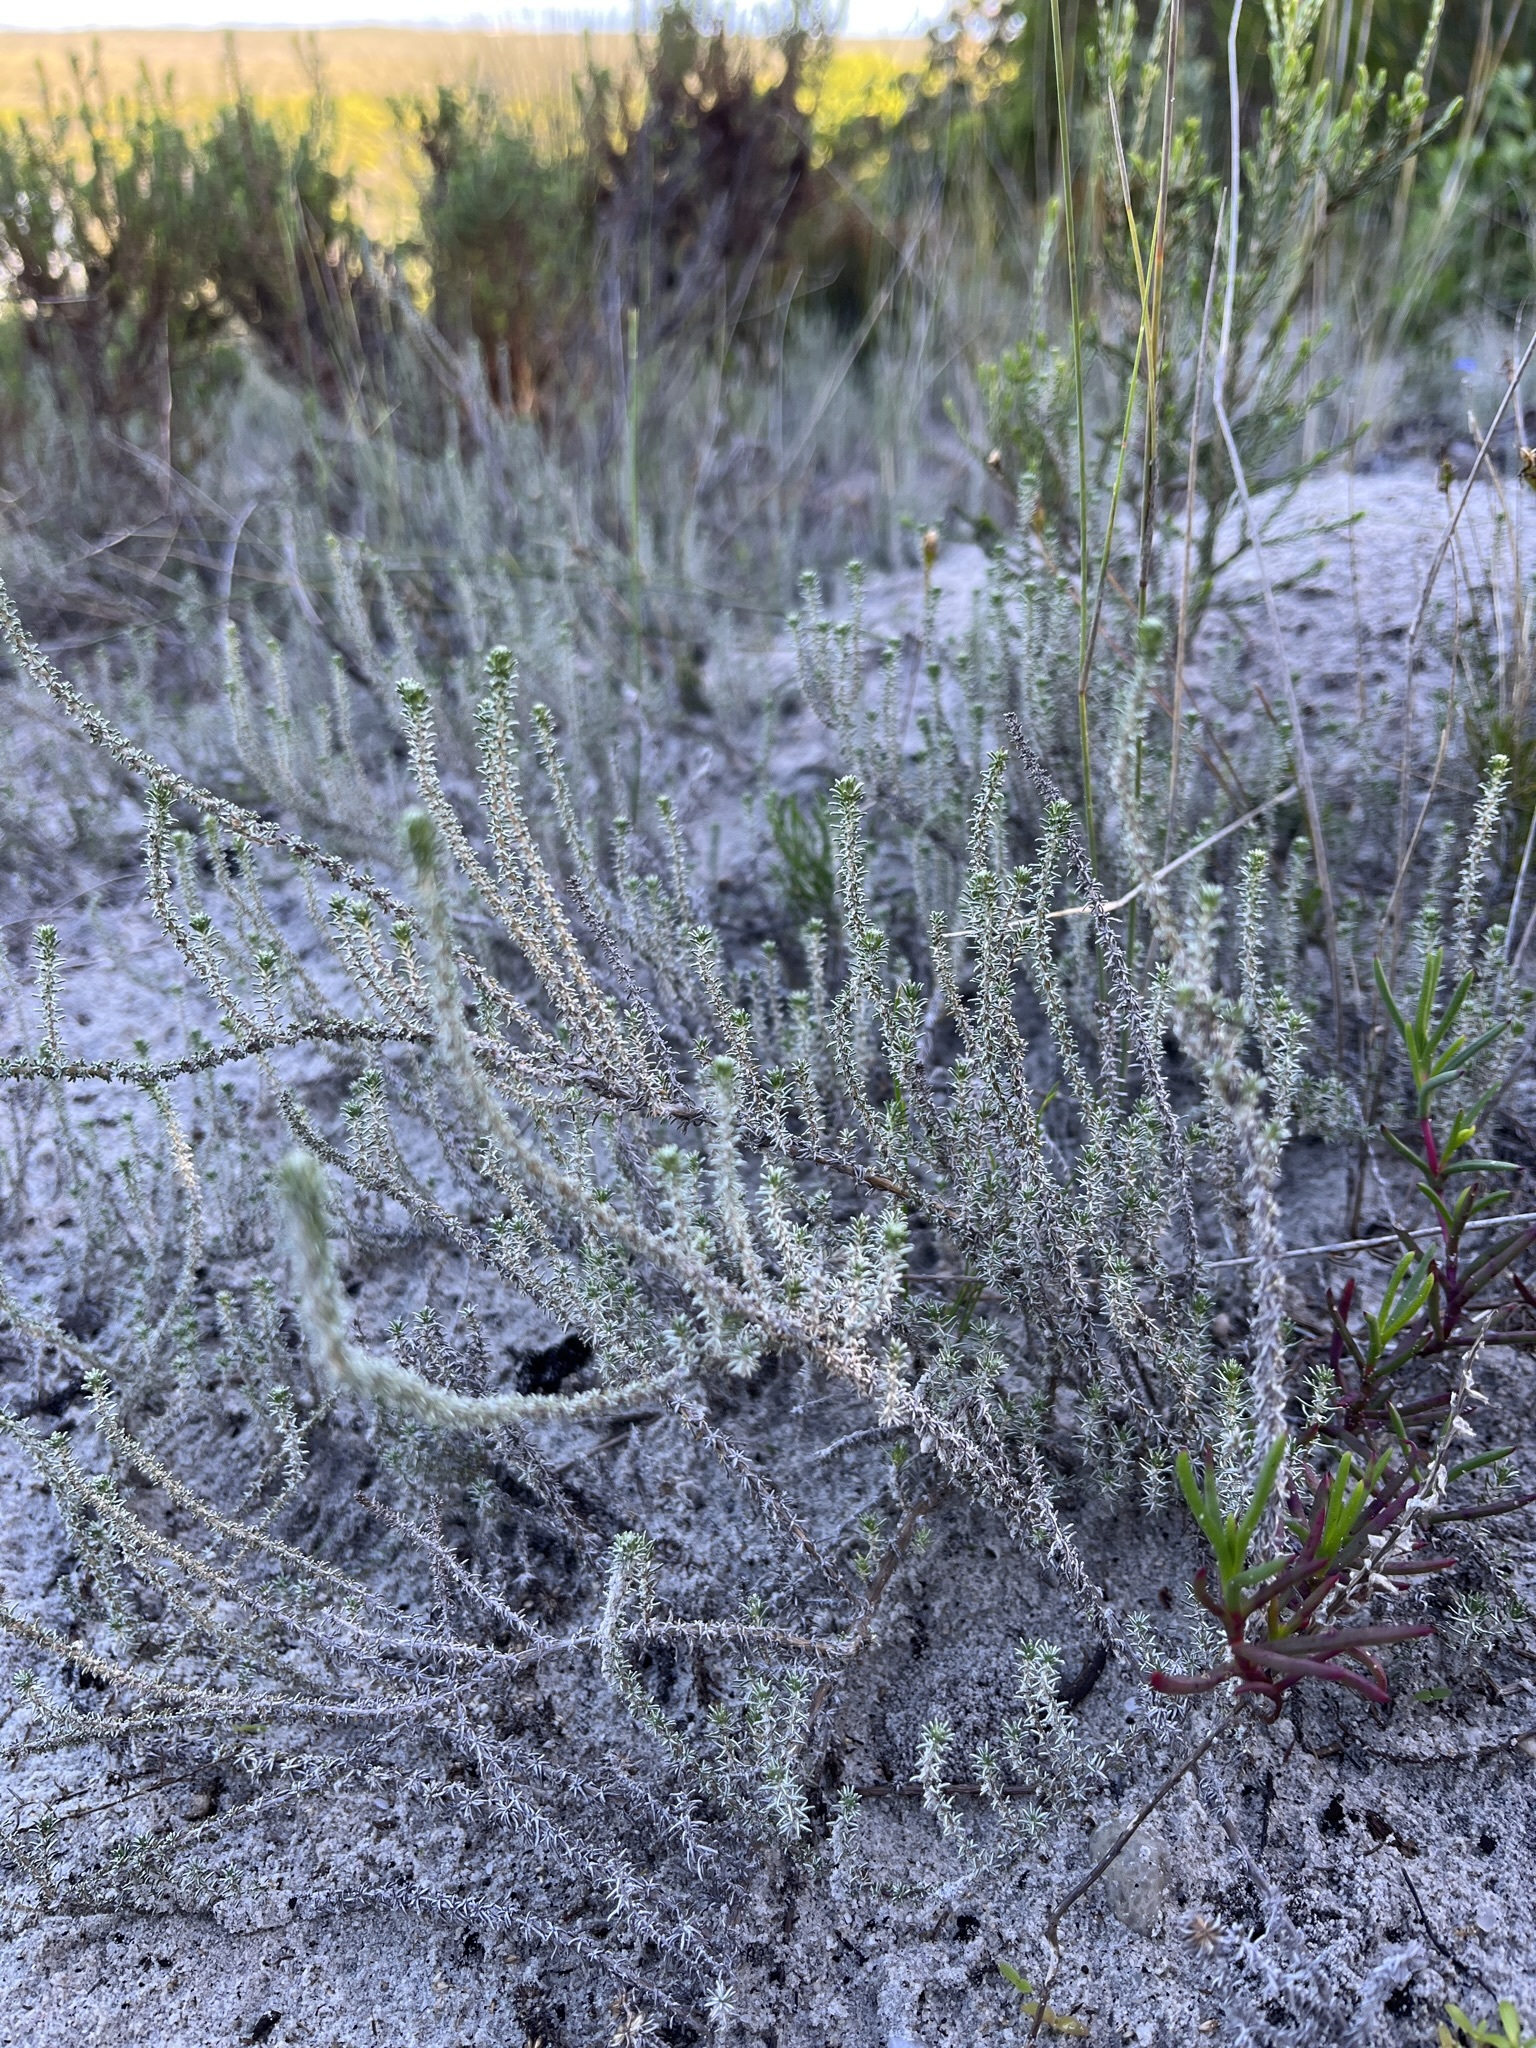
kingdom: Plantae
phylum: Tracheophyta
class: Magnoliopsida
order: Asterales
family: Asteraceae
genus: Ifloga
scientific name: Ifloga repens
